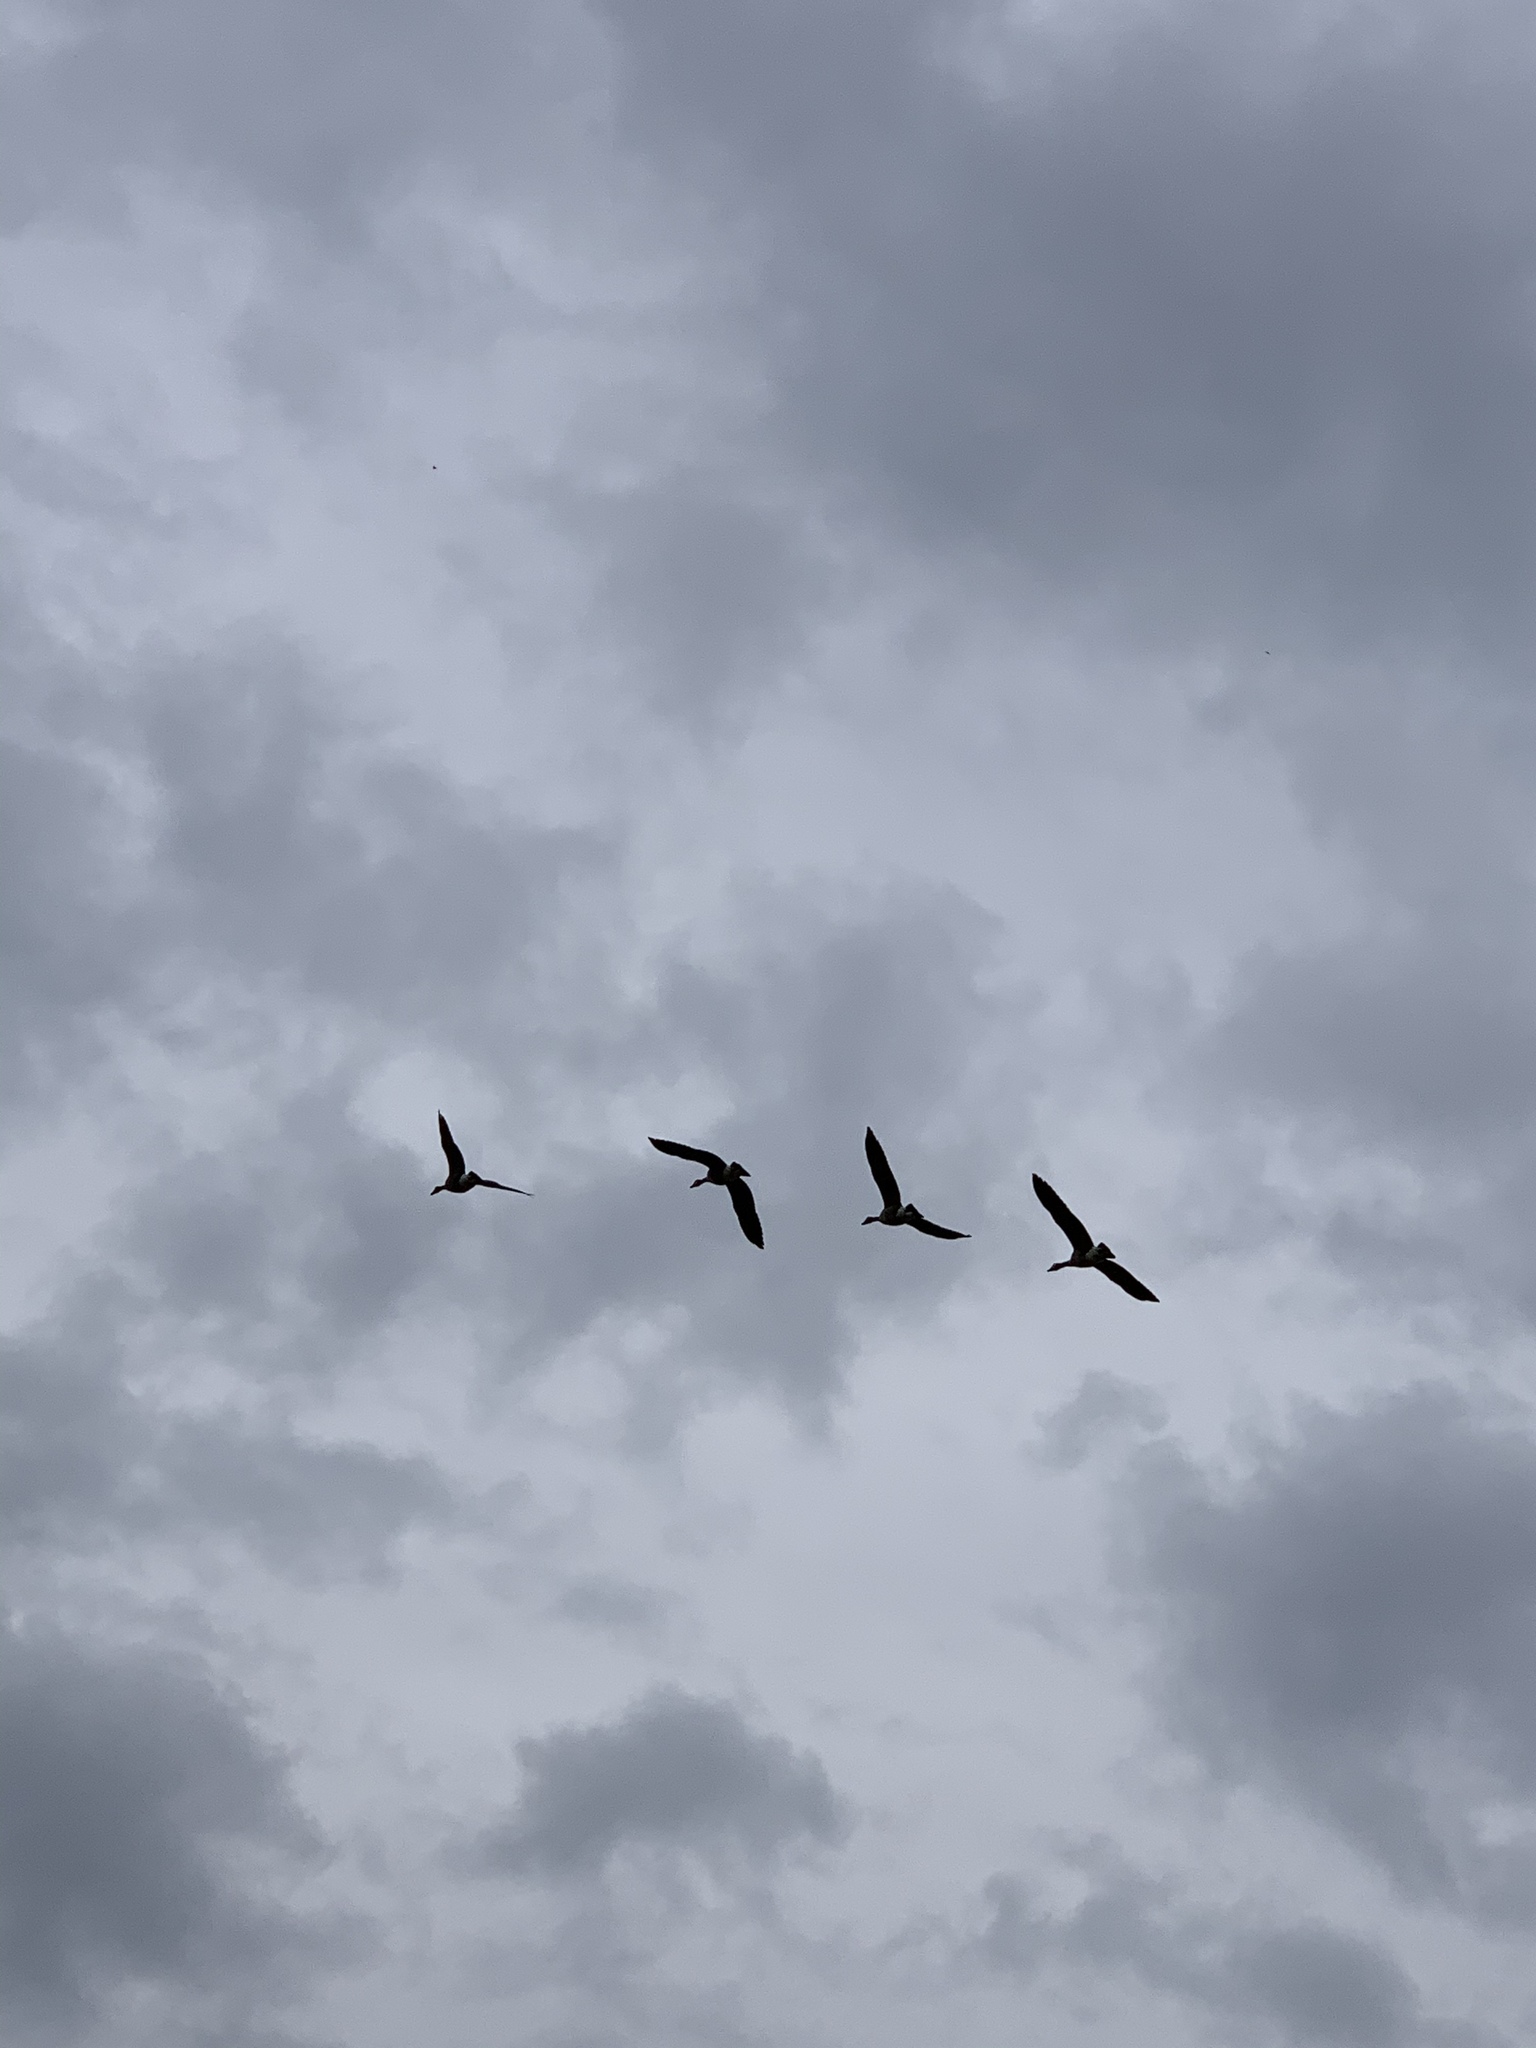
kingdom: Animalia
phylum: Chordata
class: Aves
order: Anseriformes
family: Anatidae
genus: Branta
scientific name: Branta canadensis
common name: Canada goose
